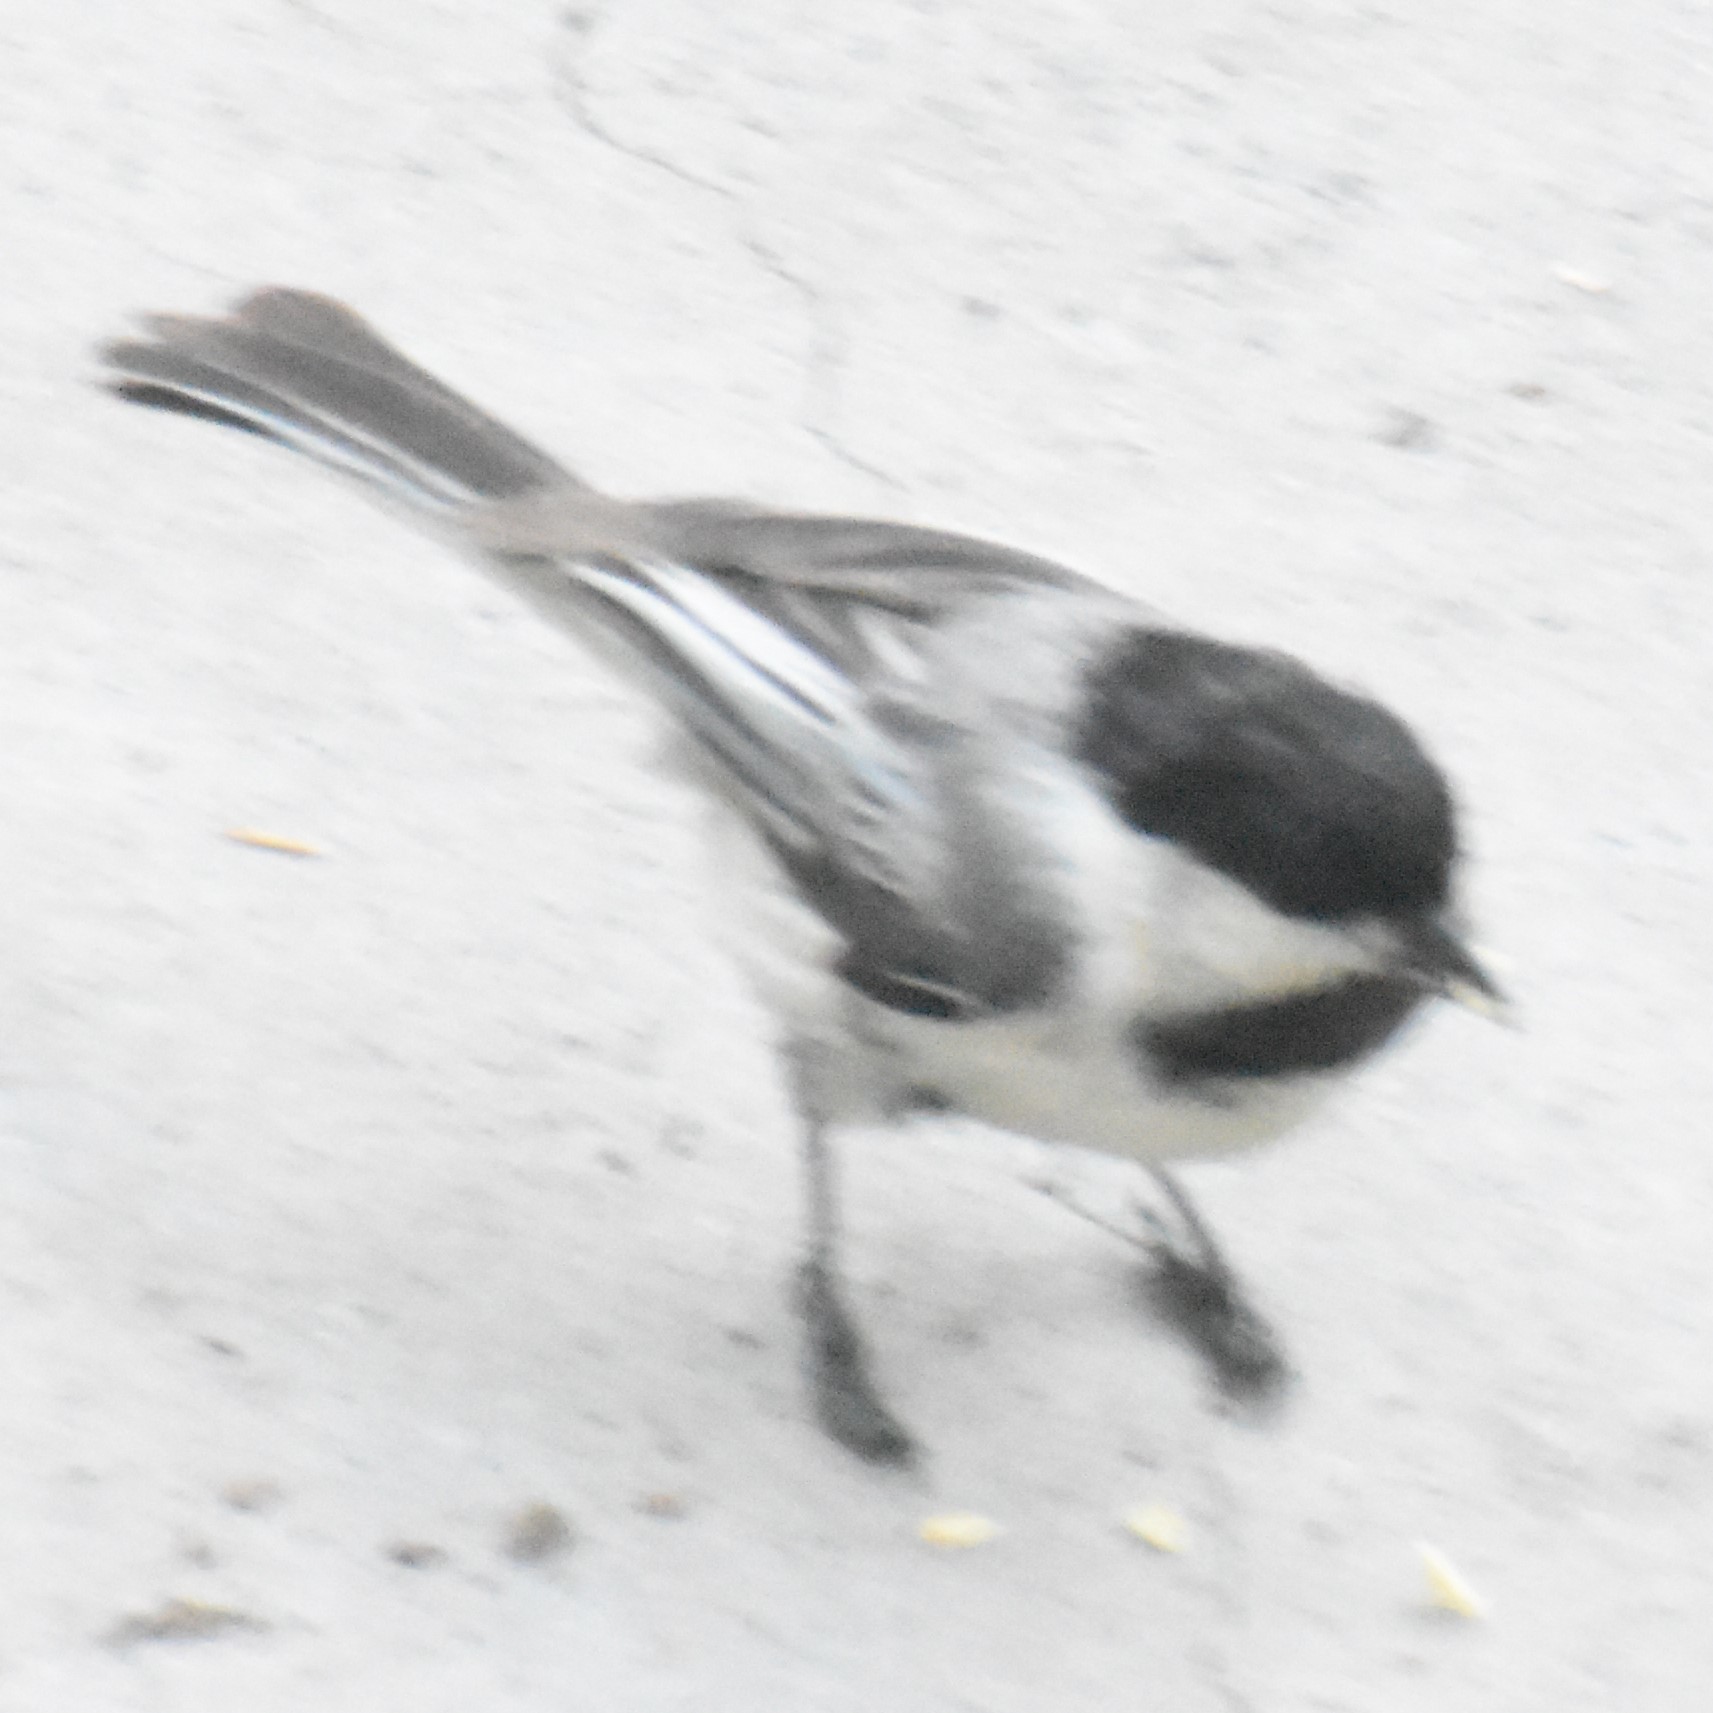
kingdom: Animalia
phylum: Chordata
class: Aves
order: Passeriformes
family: Paridae
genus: Poecile
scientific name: Poecile atricapillus
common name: Black-capped chickadee
